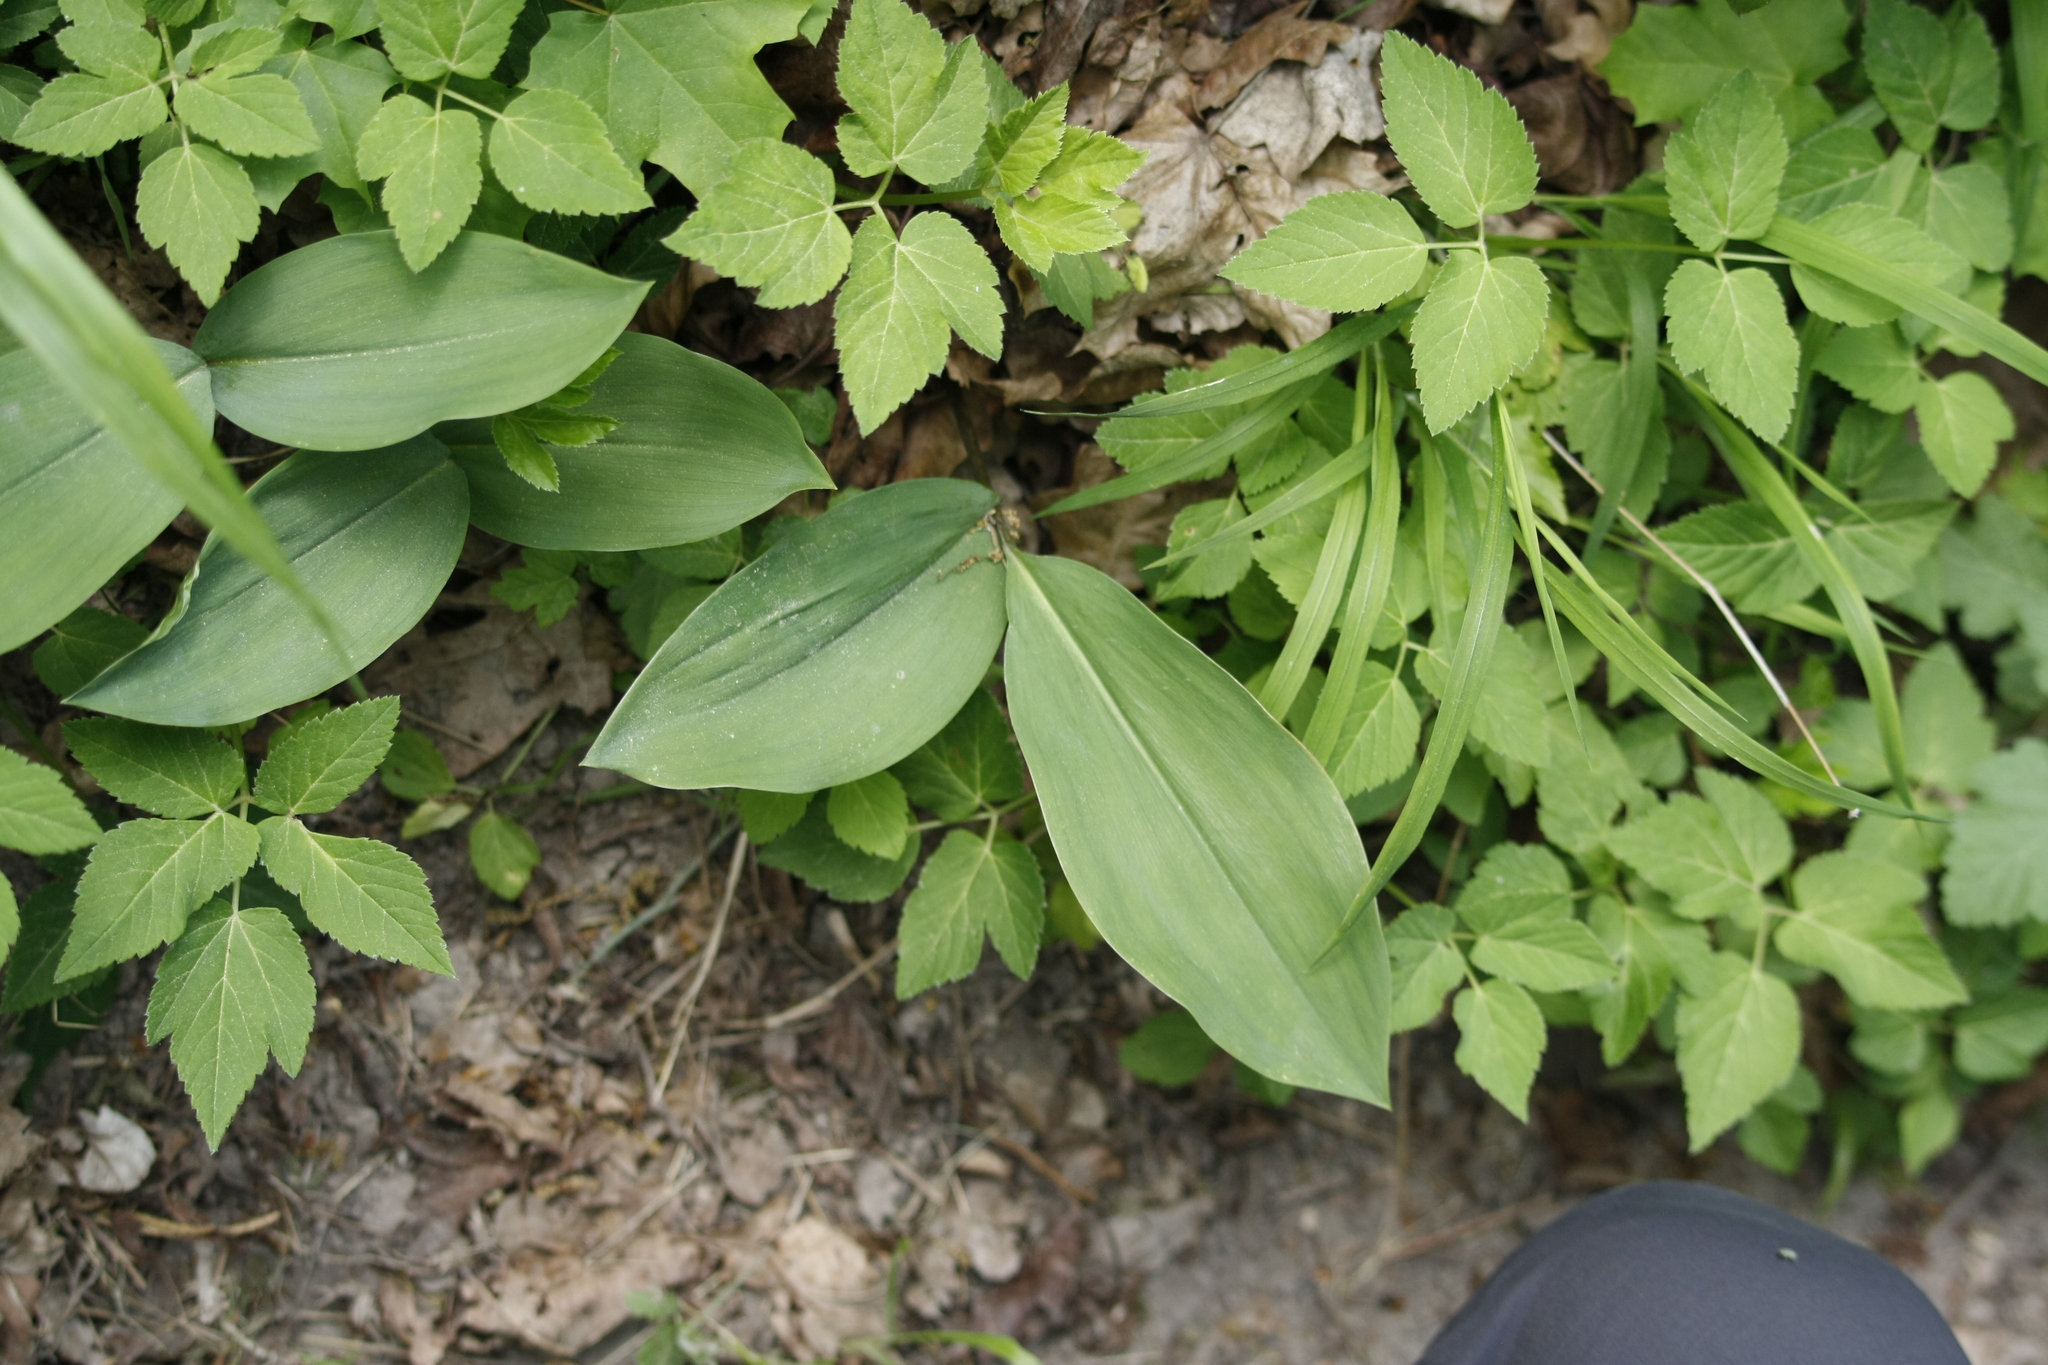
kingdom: Plantae
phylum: Tracheophyta
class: Liliopsida
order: Asparagales
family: Asparagaceae
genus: Convallaria
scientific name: Convallaria majalis
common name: Lily-of-the-valley
